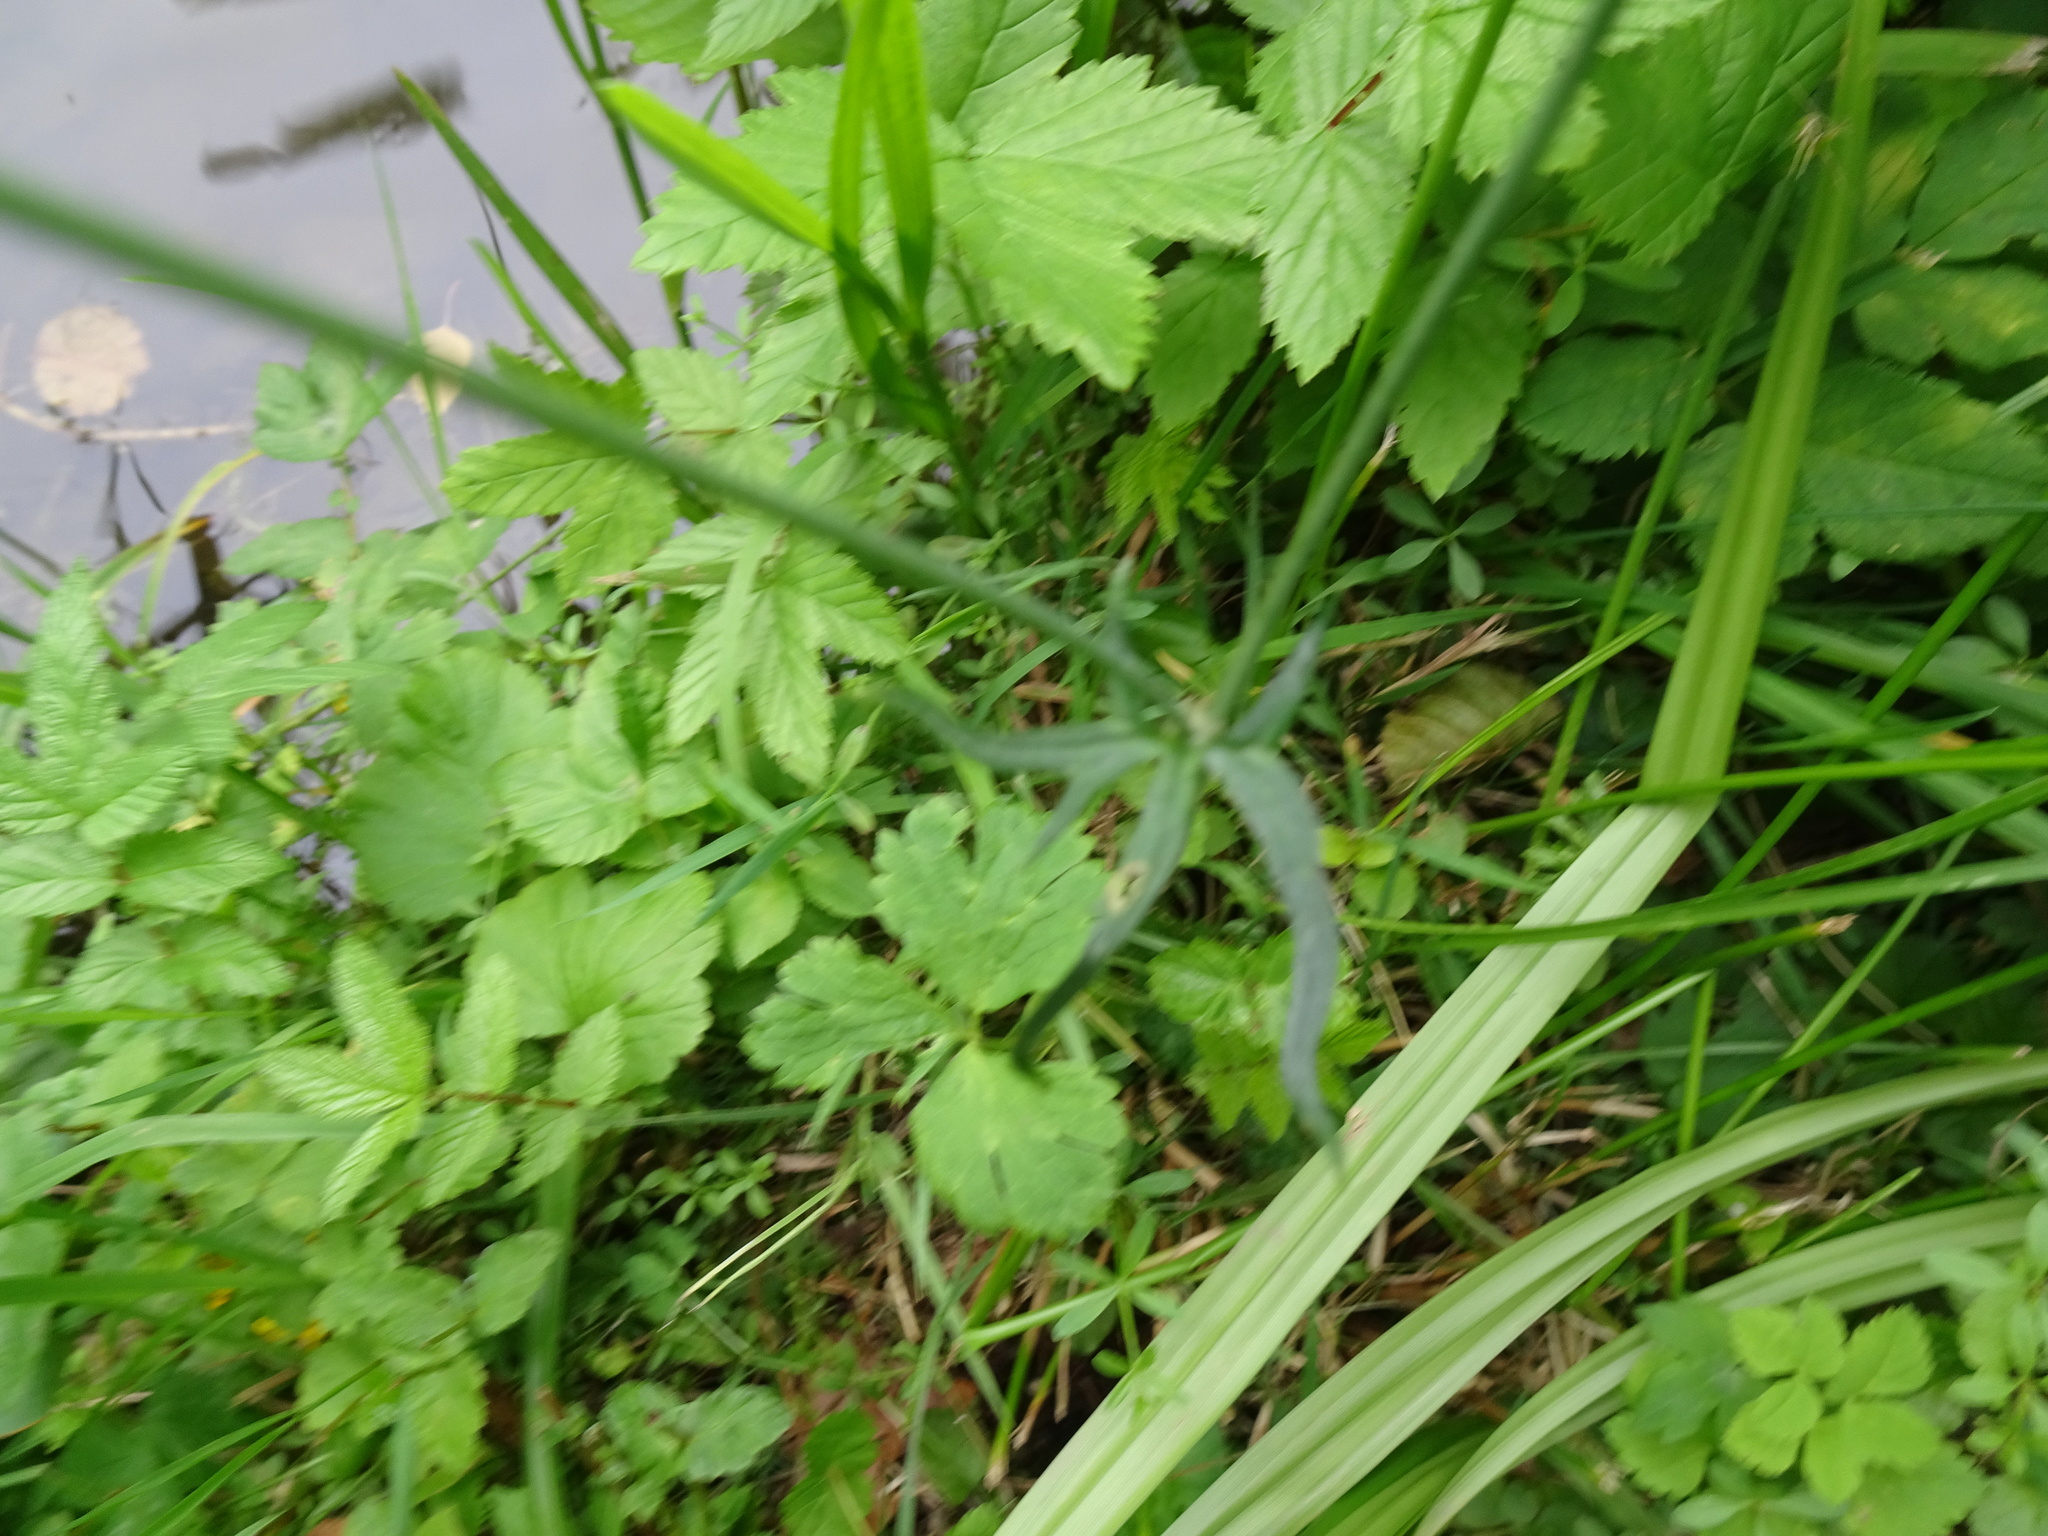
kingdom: Plantae
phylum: Tracheophyta
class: Magnoliopsida
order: Ranunculales
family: Ranunculaceae
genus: Ranunculus
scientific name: Ranunculus acris
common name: Meadow buttercup
